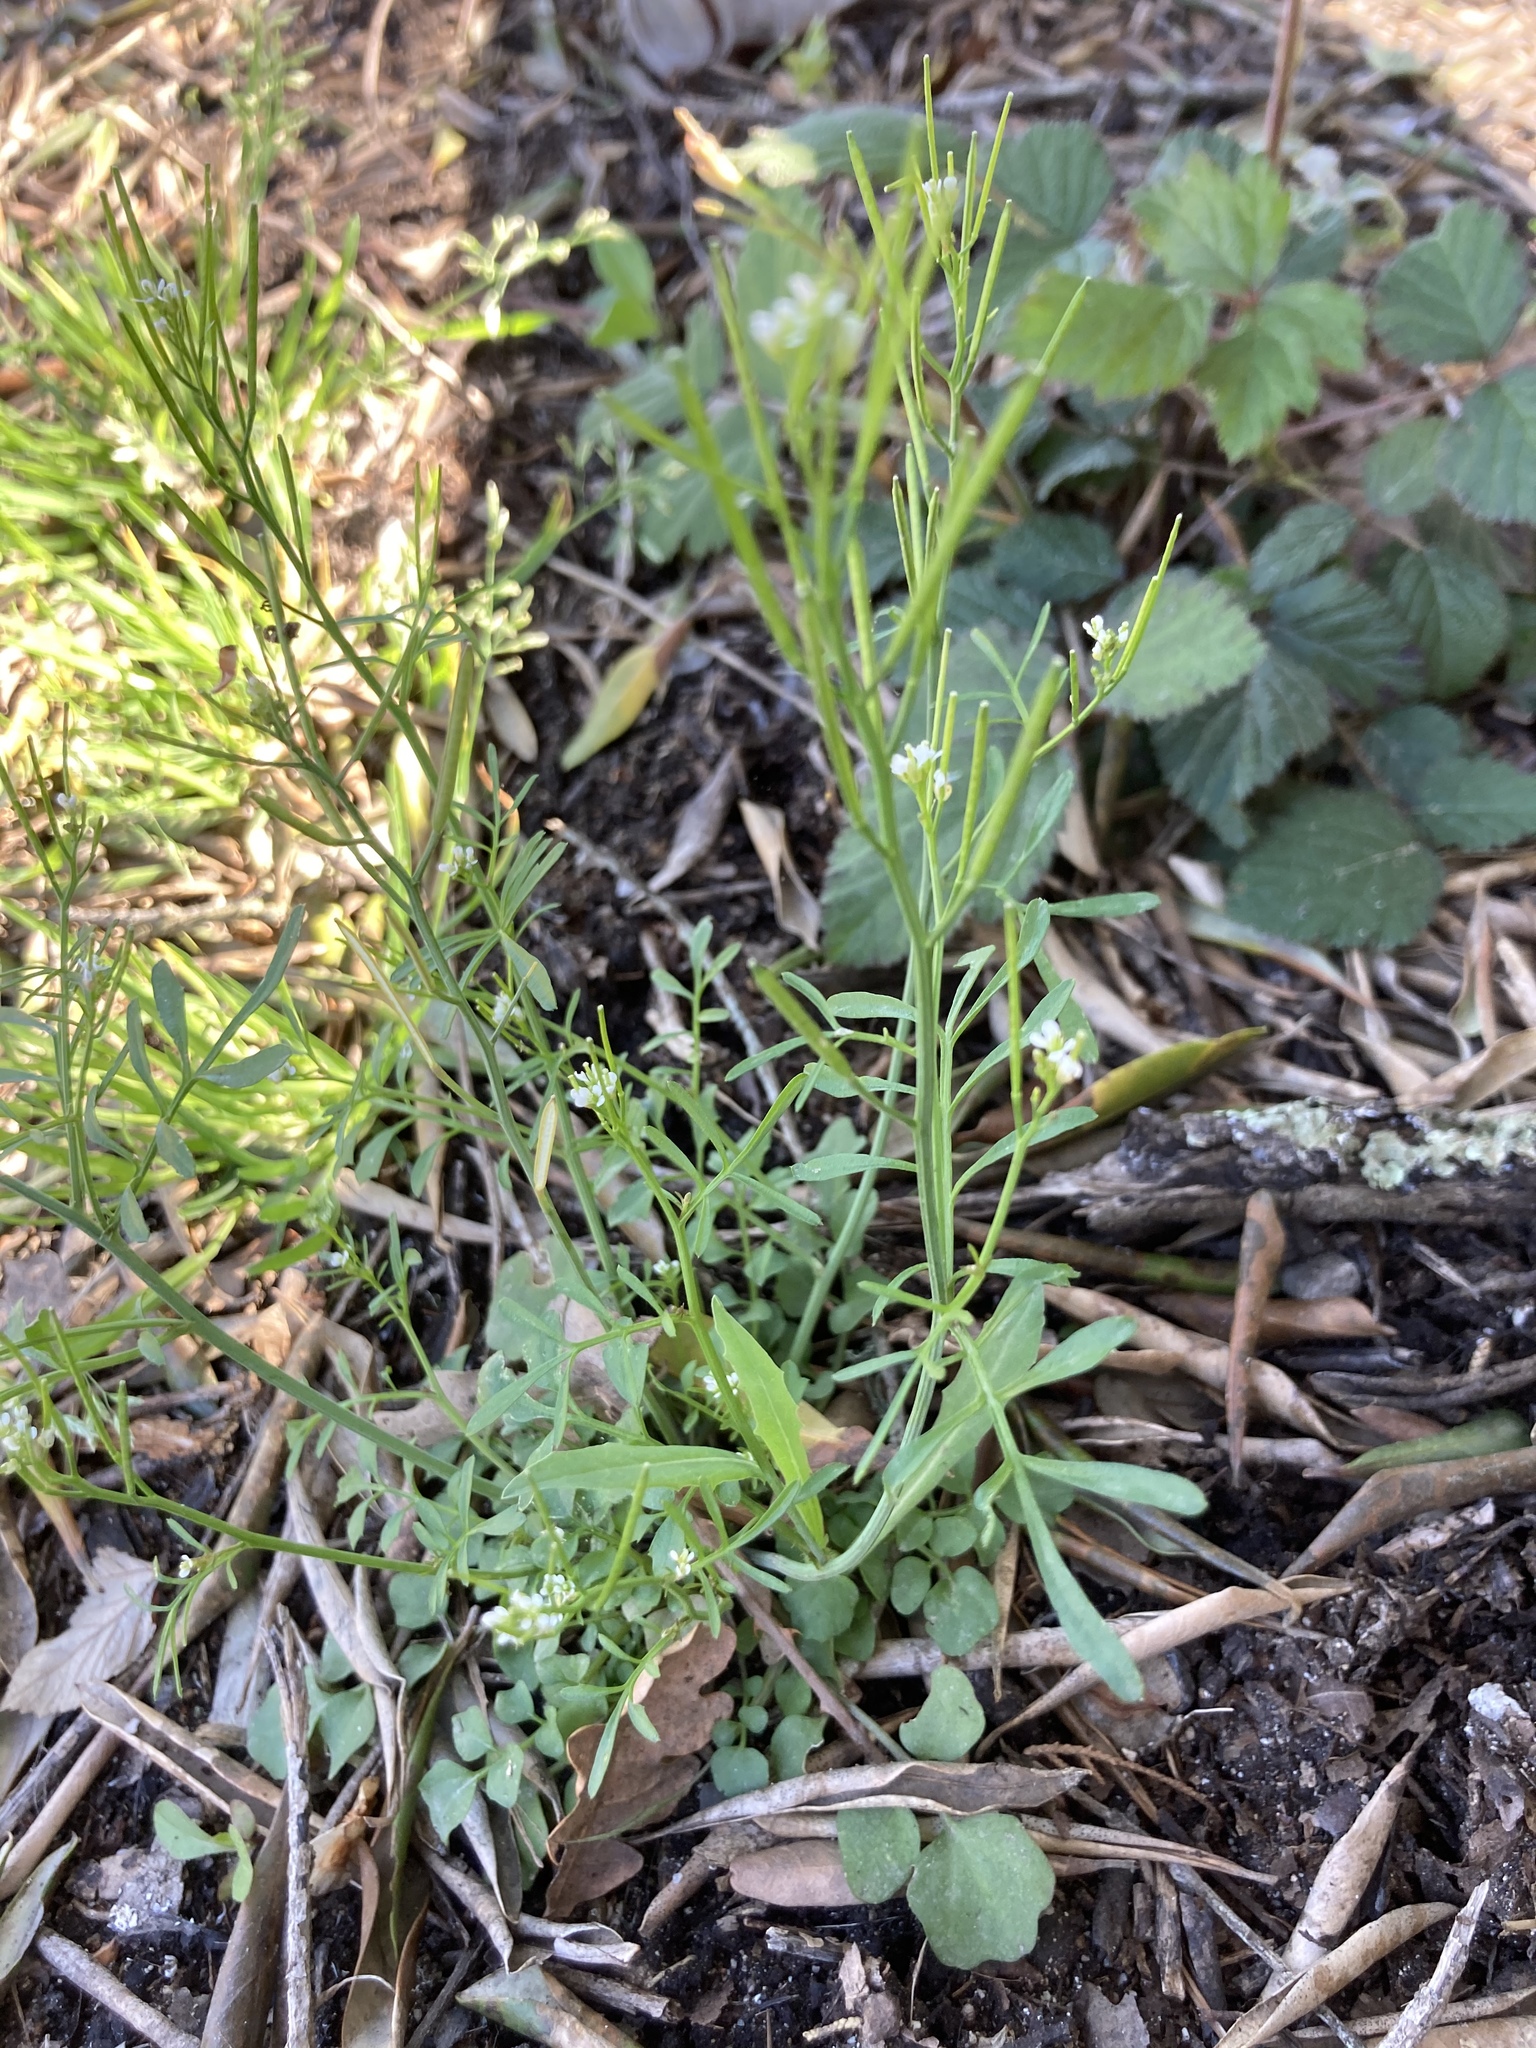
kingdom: Plantae
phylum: Tracheophyta
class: Magnoliopsida
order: Brassicales
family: Brassicaceae
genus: Cardamine
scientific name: Cardamine hirsuta
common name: Hairy bittercress
